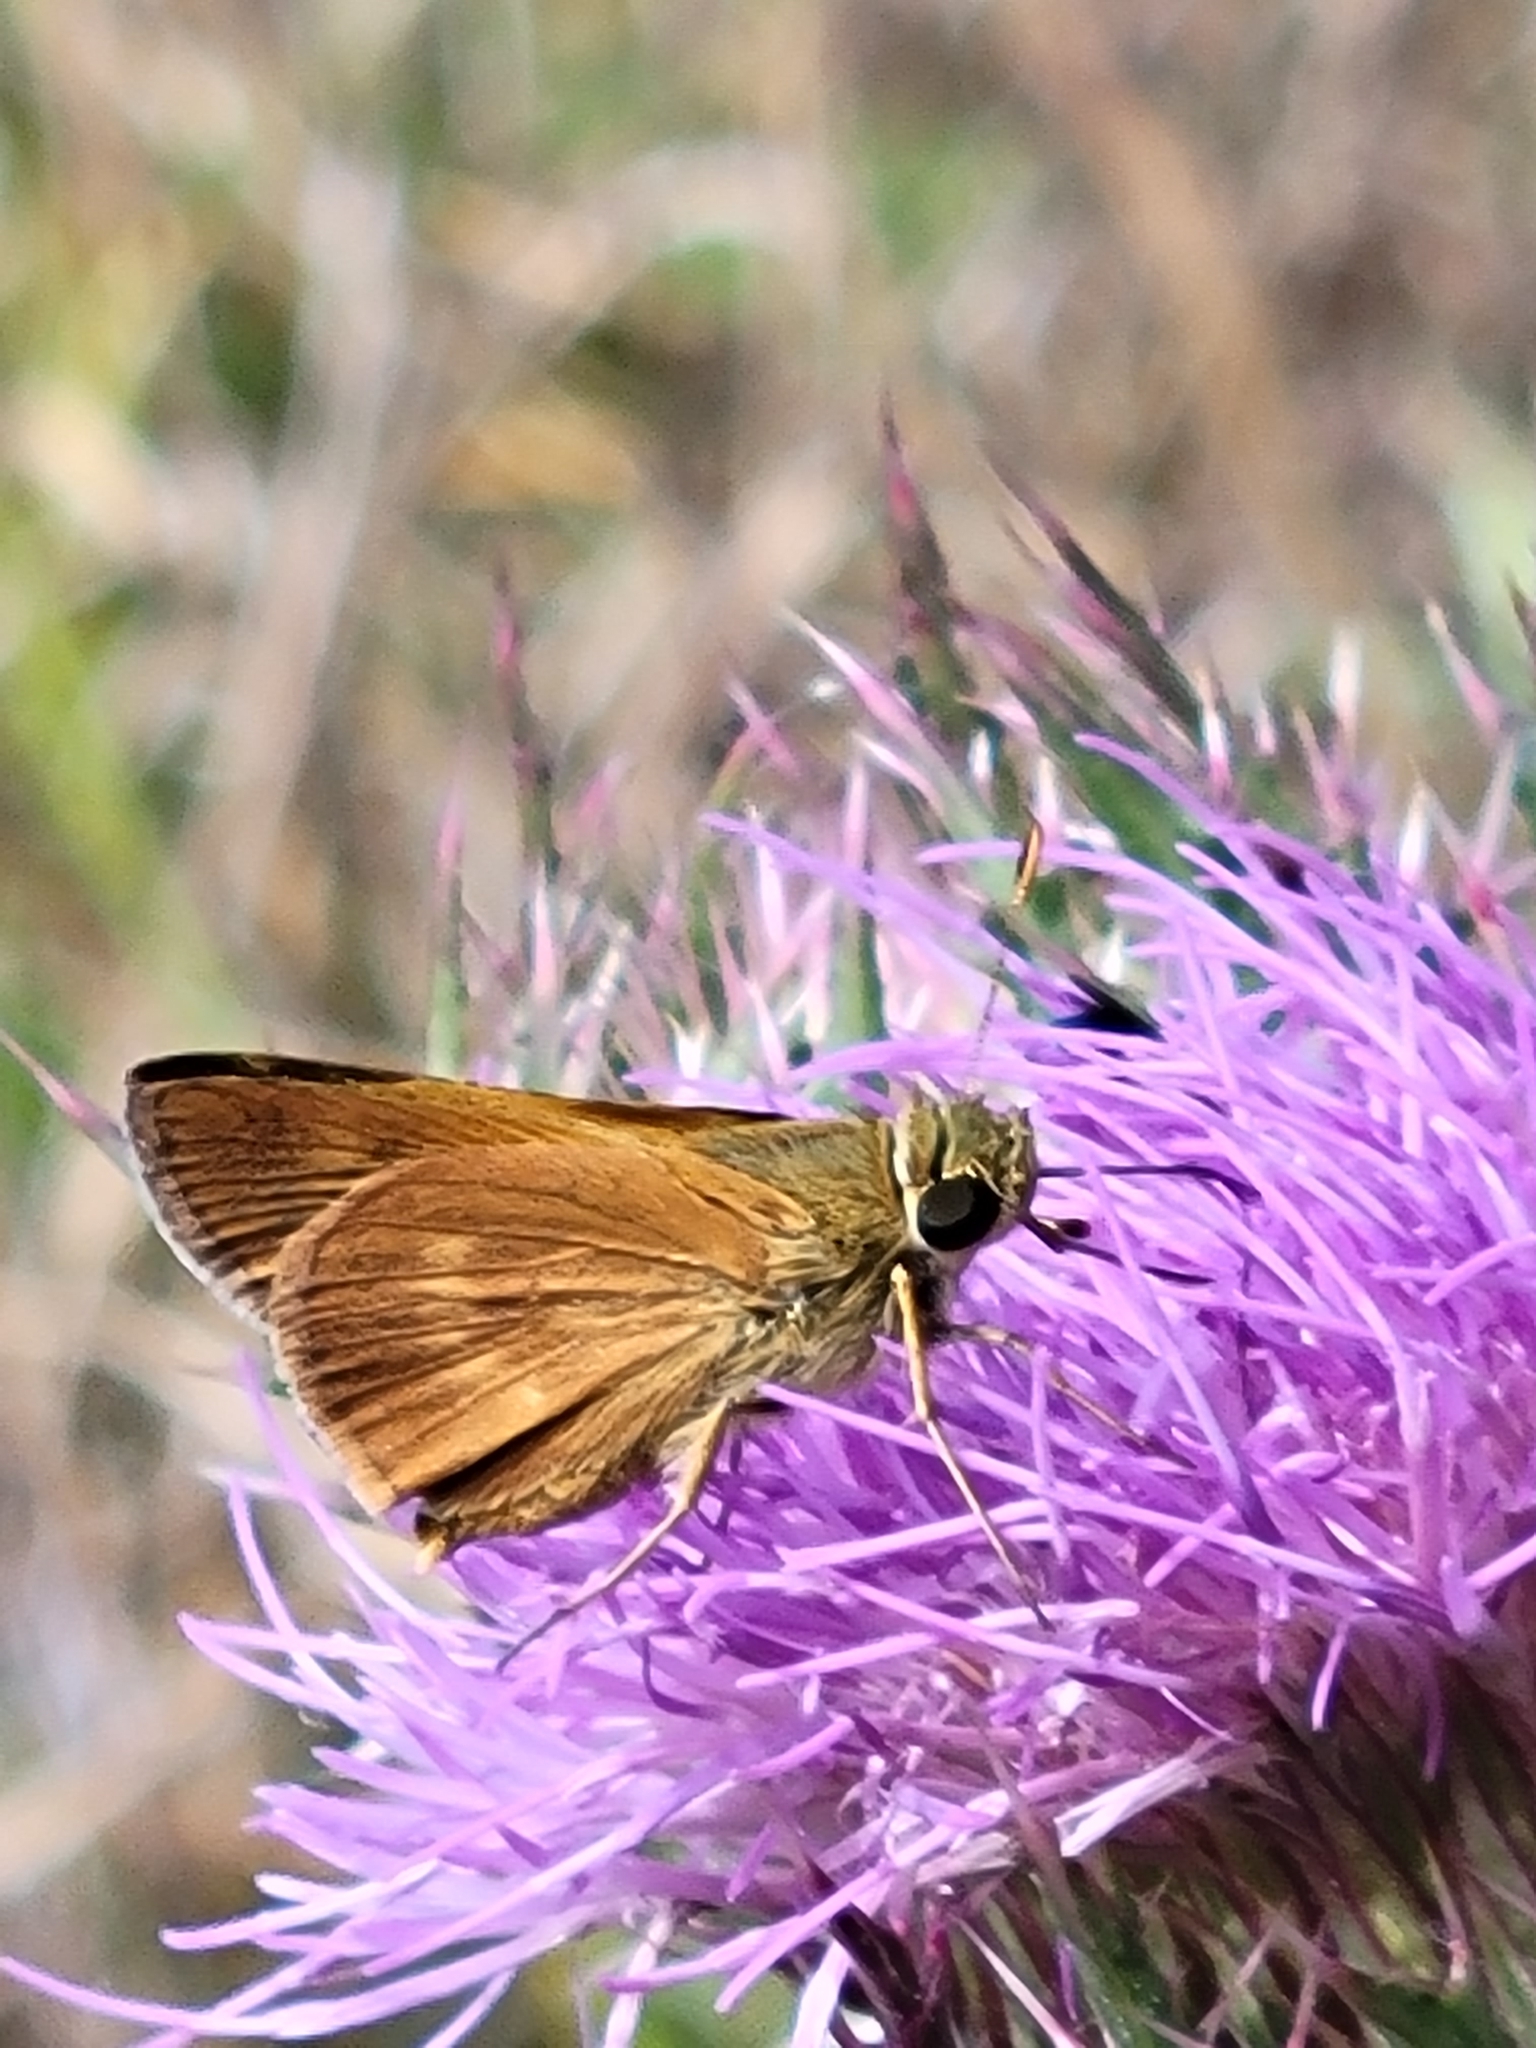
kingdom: Animalia
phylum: Arthropoda
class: Insecta
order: Lepidoptera
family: Hesperiidae
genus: Polites
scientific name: Polites otho
